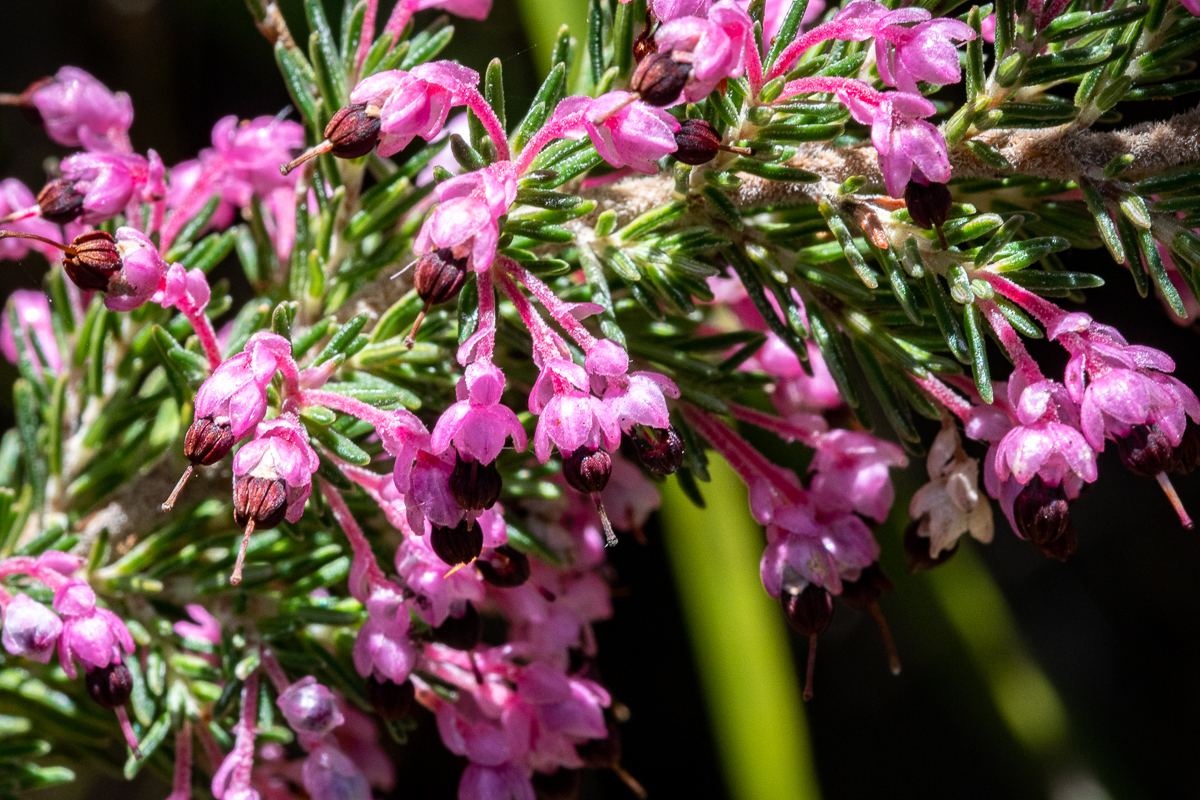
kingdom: Plantae
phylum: Tracheophyta
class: Magnoliopsida
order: Ericales
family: Ericaceae
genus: Erica
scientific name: Erica placentiflora
